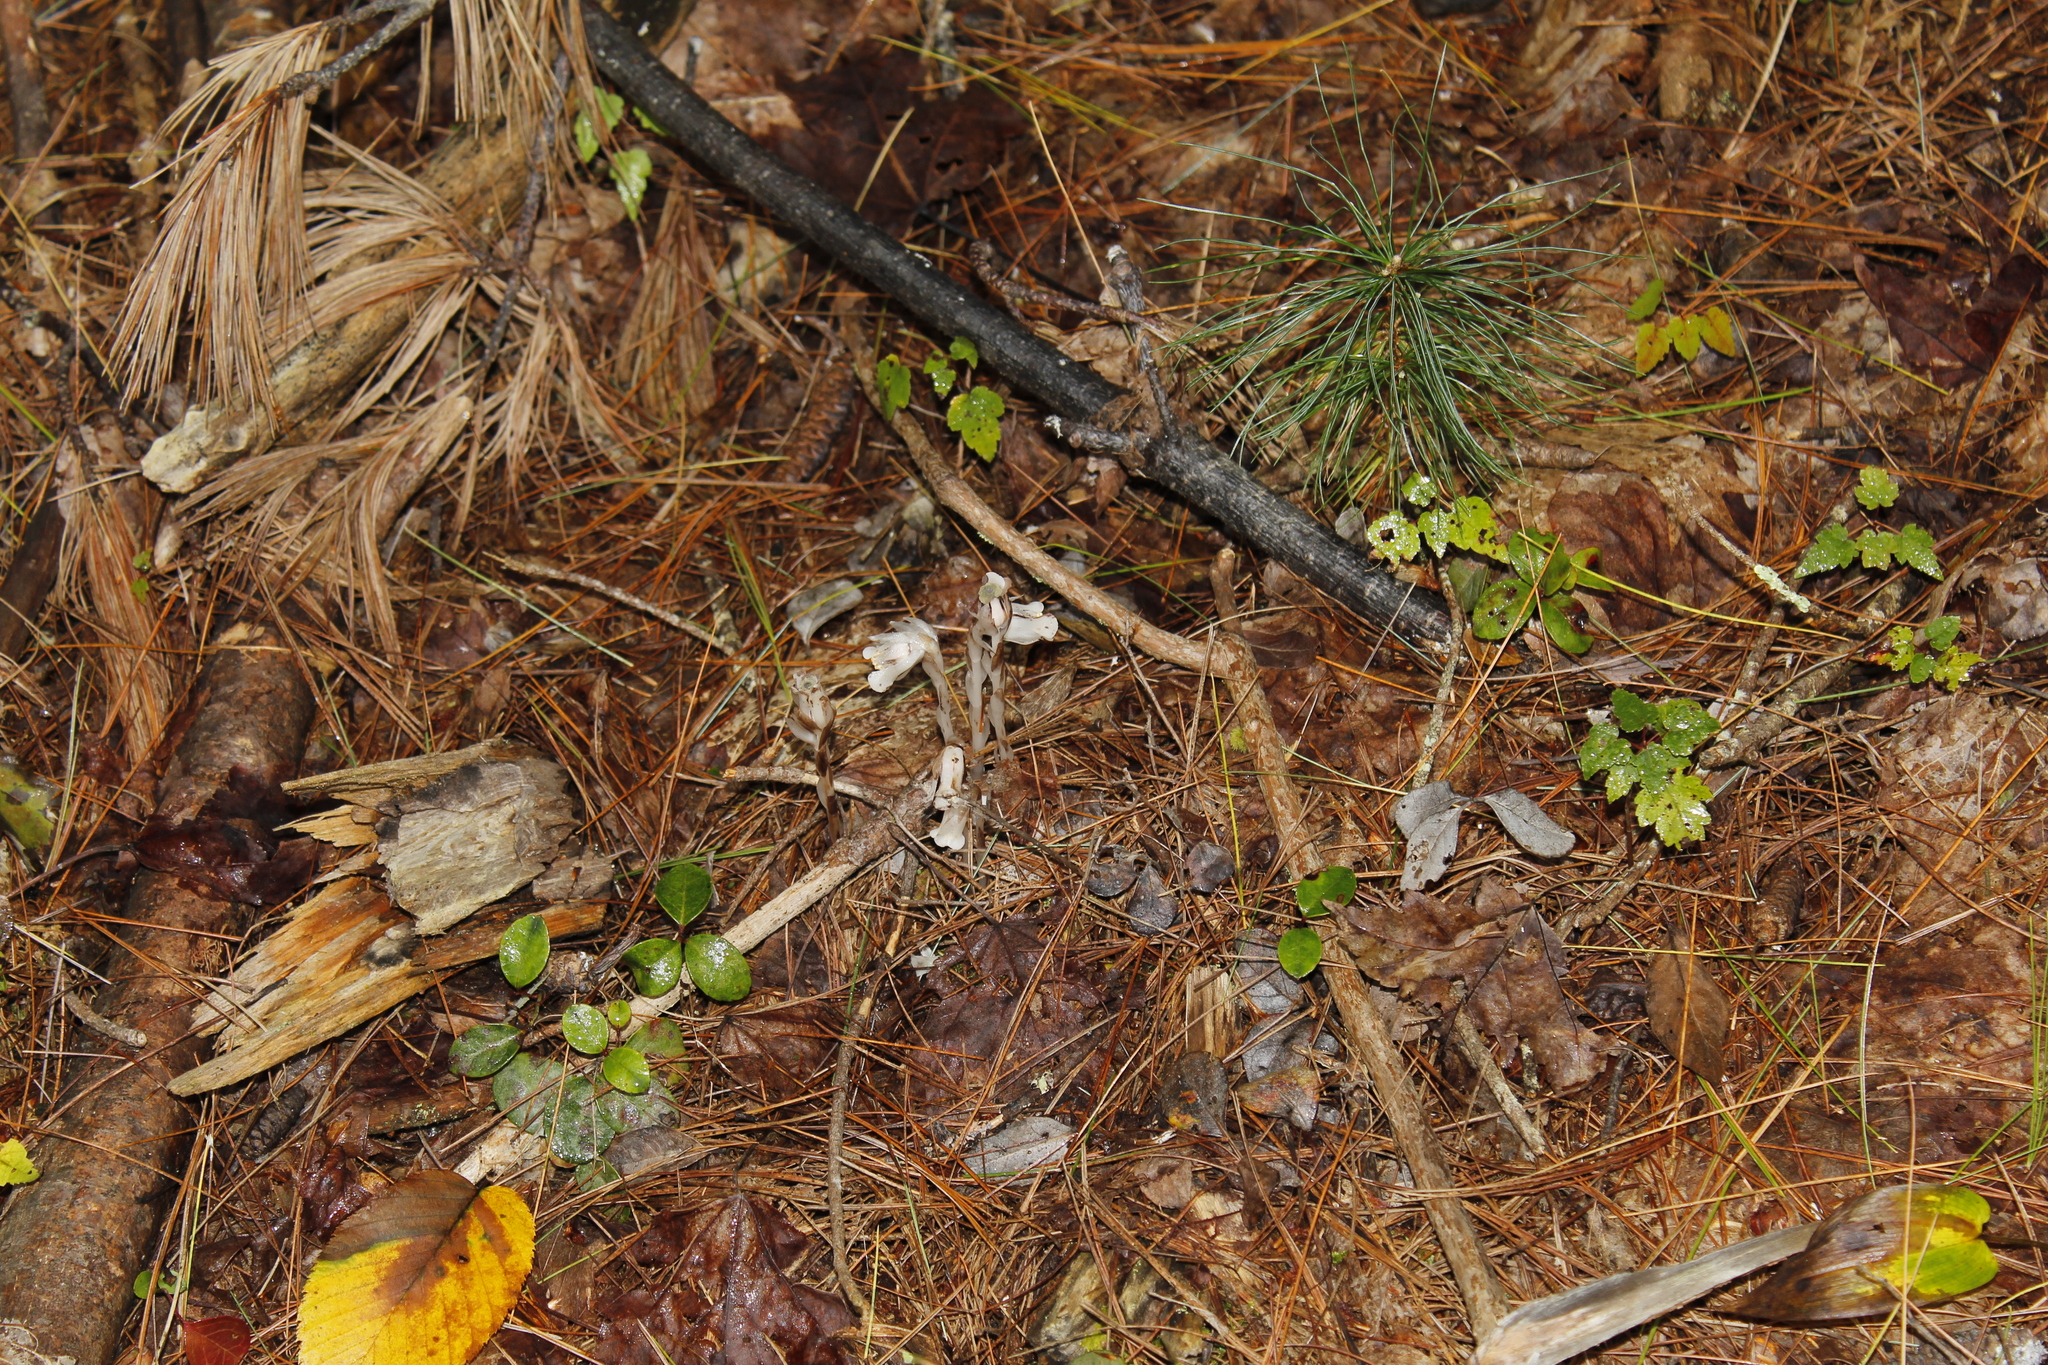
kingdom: Plantae
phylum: Tracheophyta
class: Magnoliopsida
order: Ericales
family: Ericaceae
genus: Monotropa
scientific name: Monotropa uniflora
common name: Convulsion root
